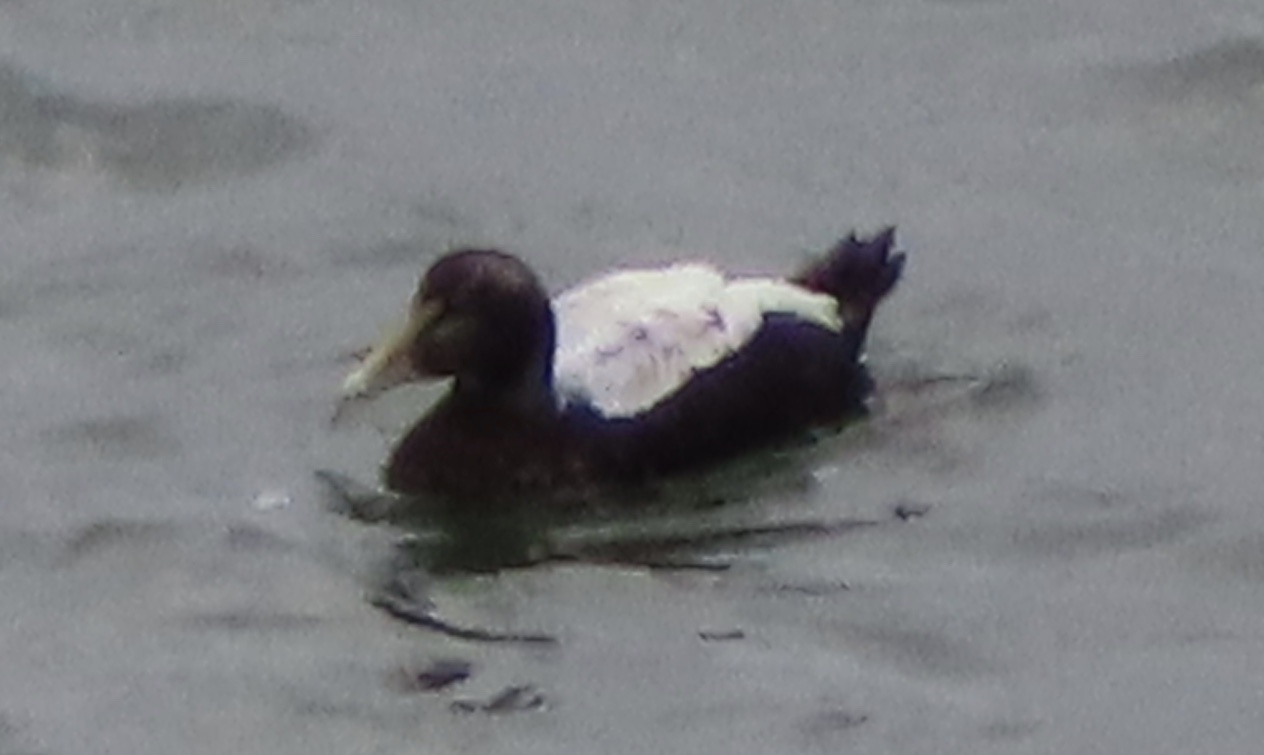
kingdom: Animalia
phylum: Chordata
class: Aves
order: Anseriformes
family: Anatidae
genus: Somateria
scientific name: Somateria mollissima
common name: Common eider
